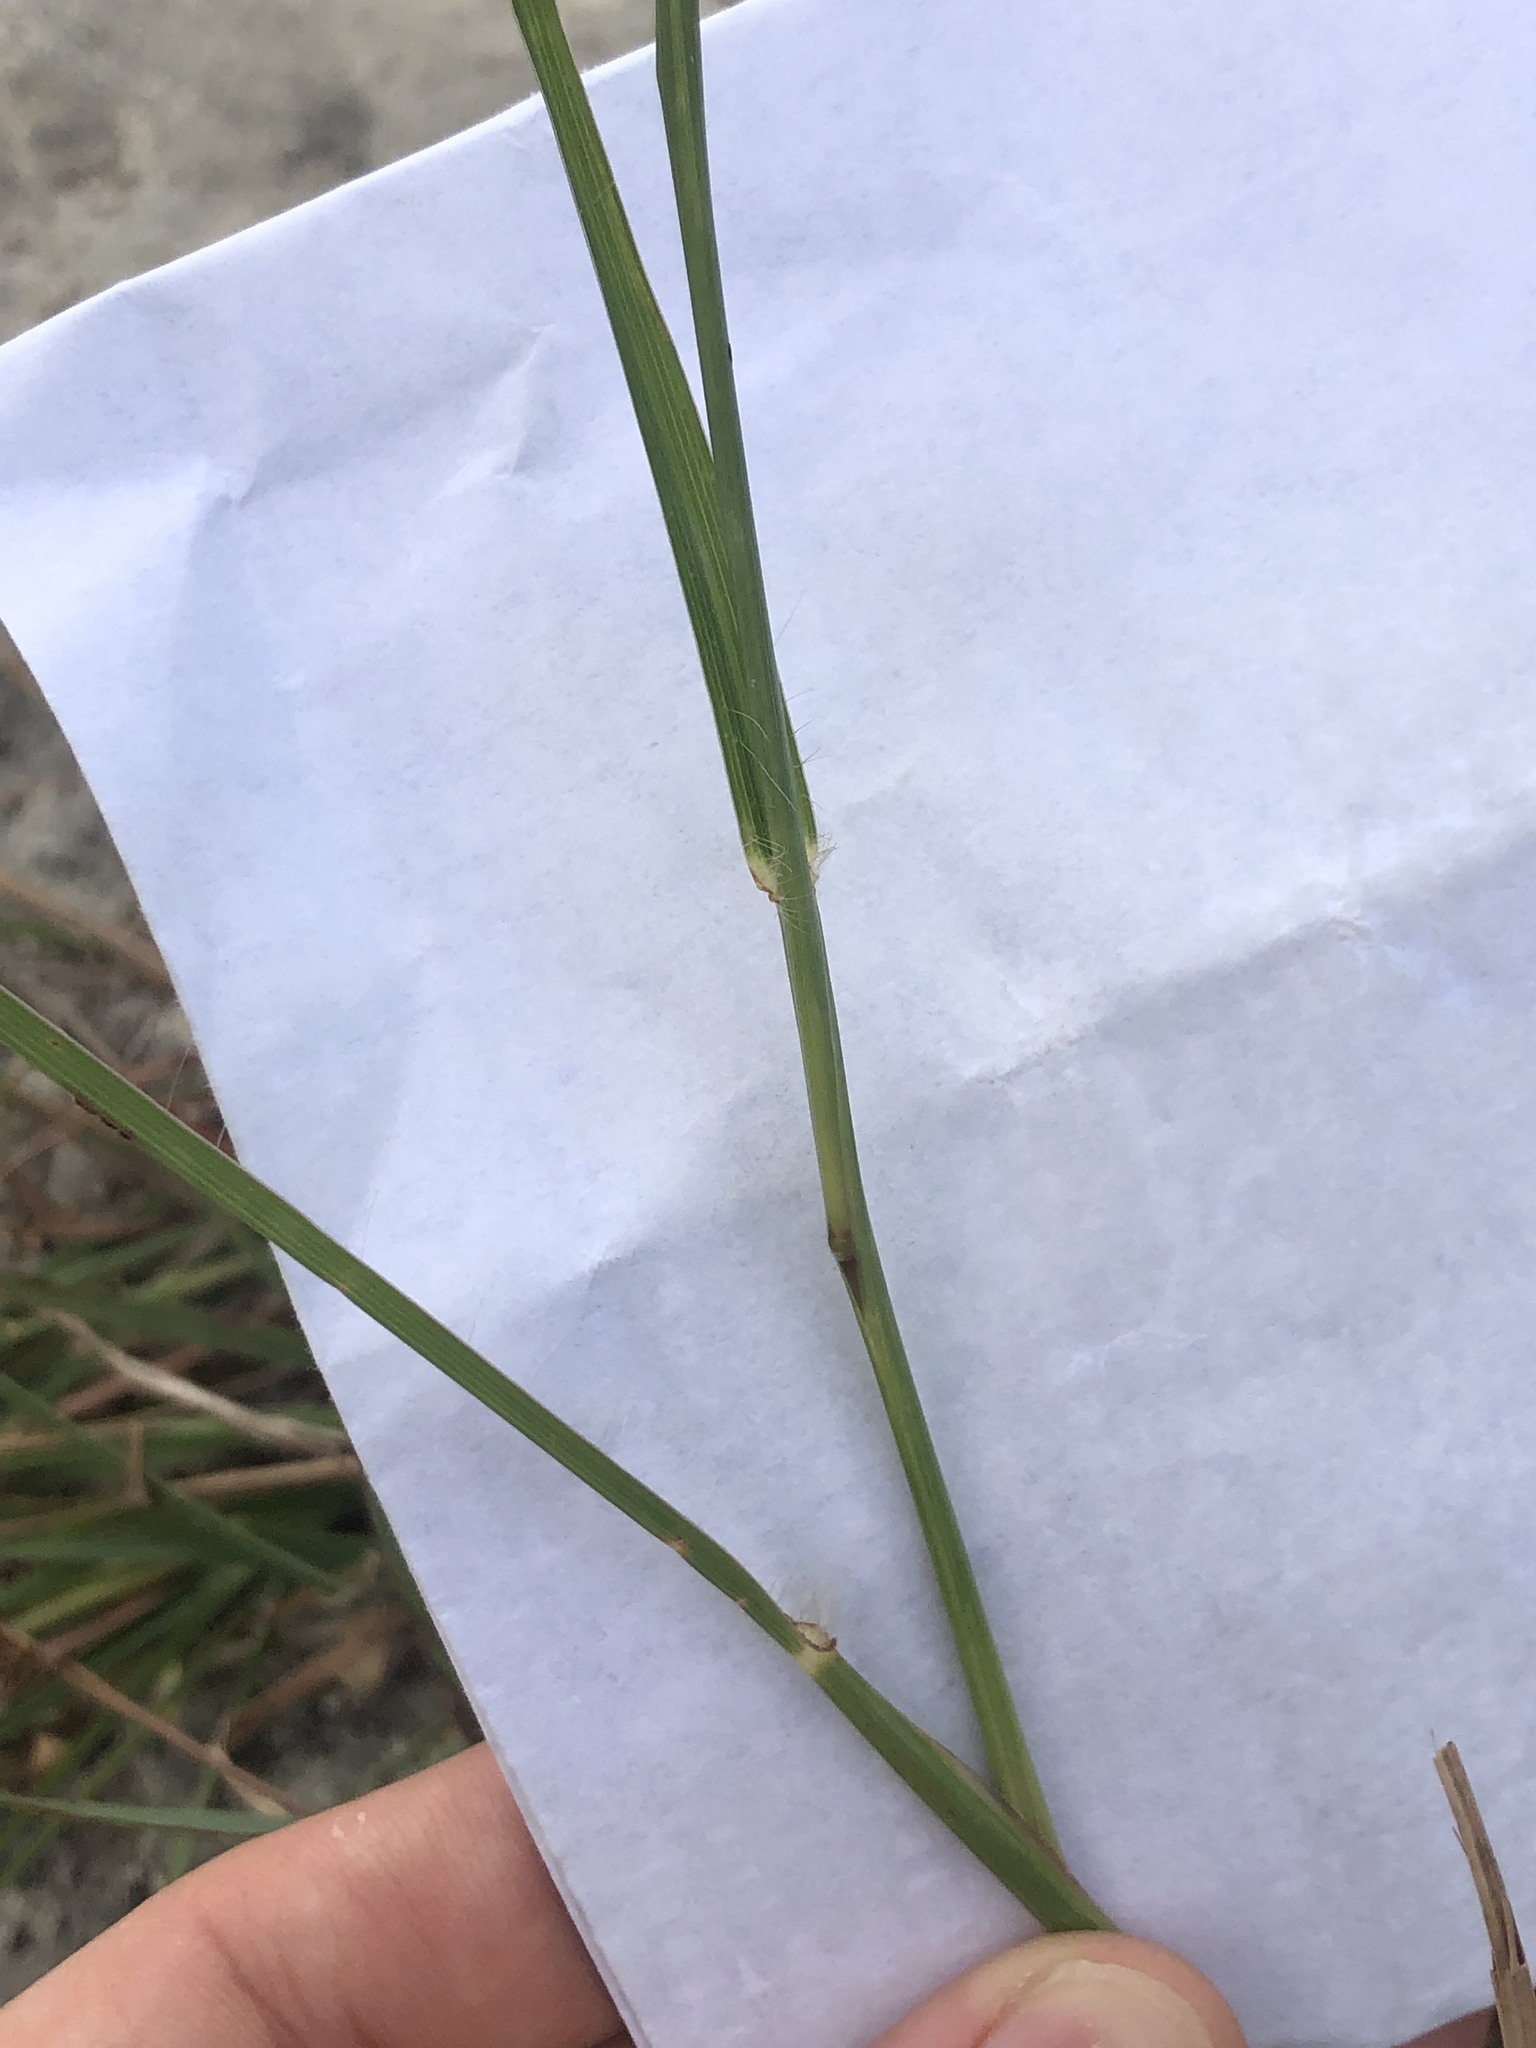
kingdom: Plantae
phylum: Tracheophyta
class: Liliopsida
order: Poales
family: Poaceae
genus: Bothriochloa
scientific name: Bothriochloa ischaemum
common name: Yellow bluestem
